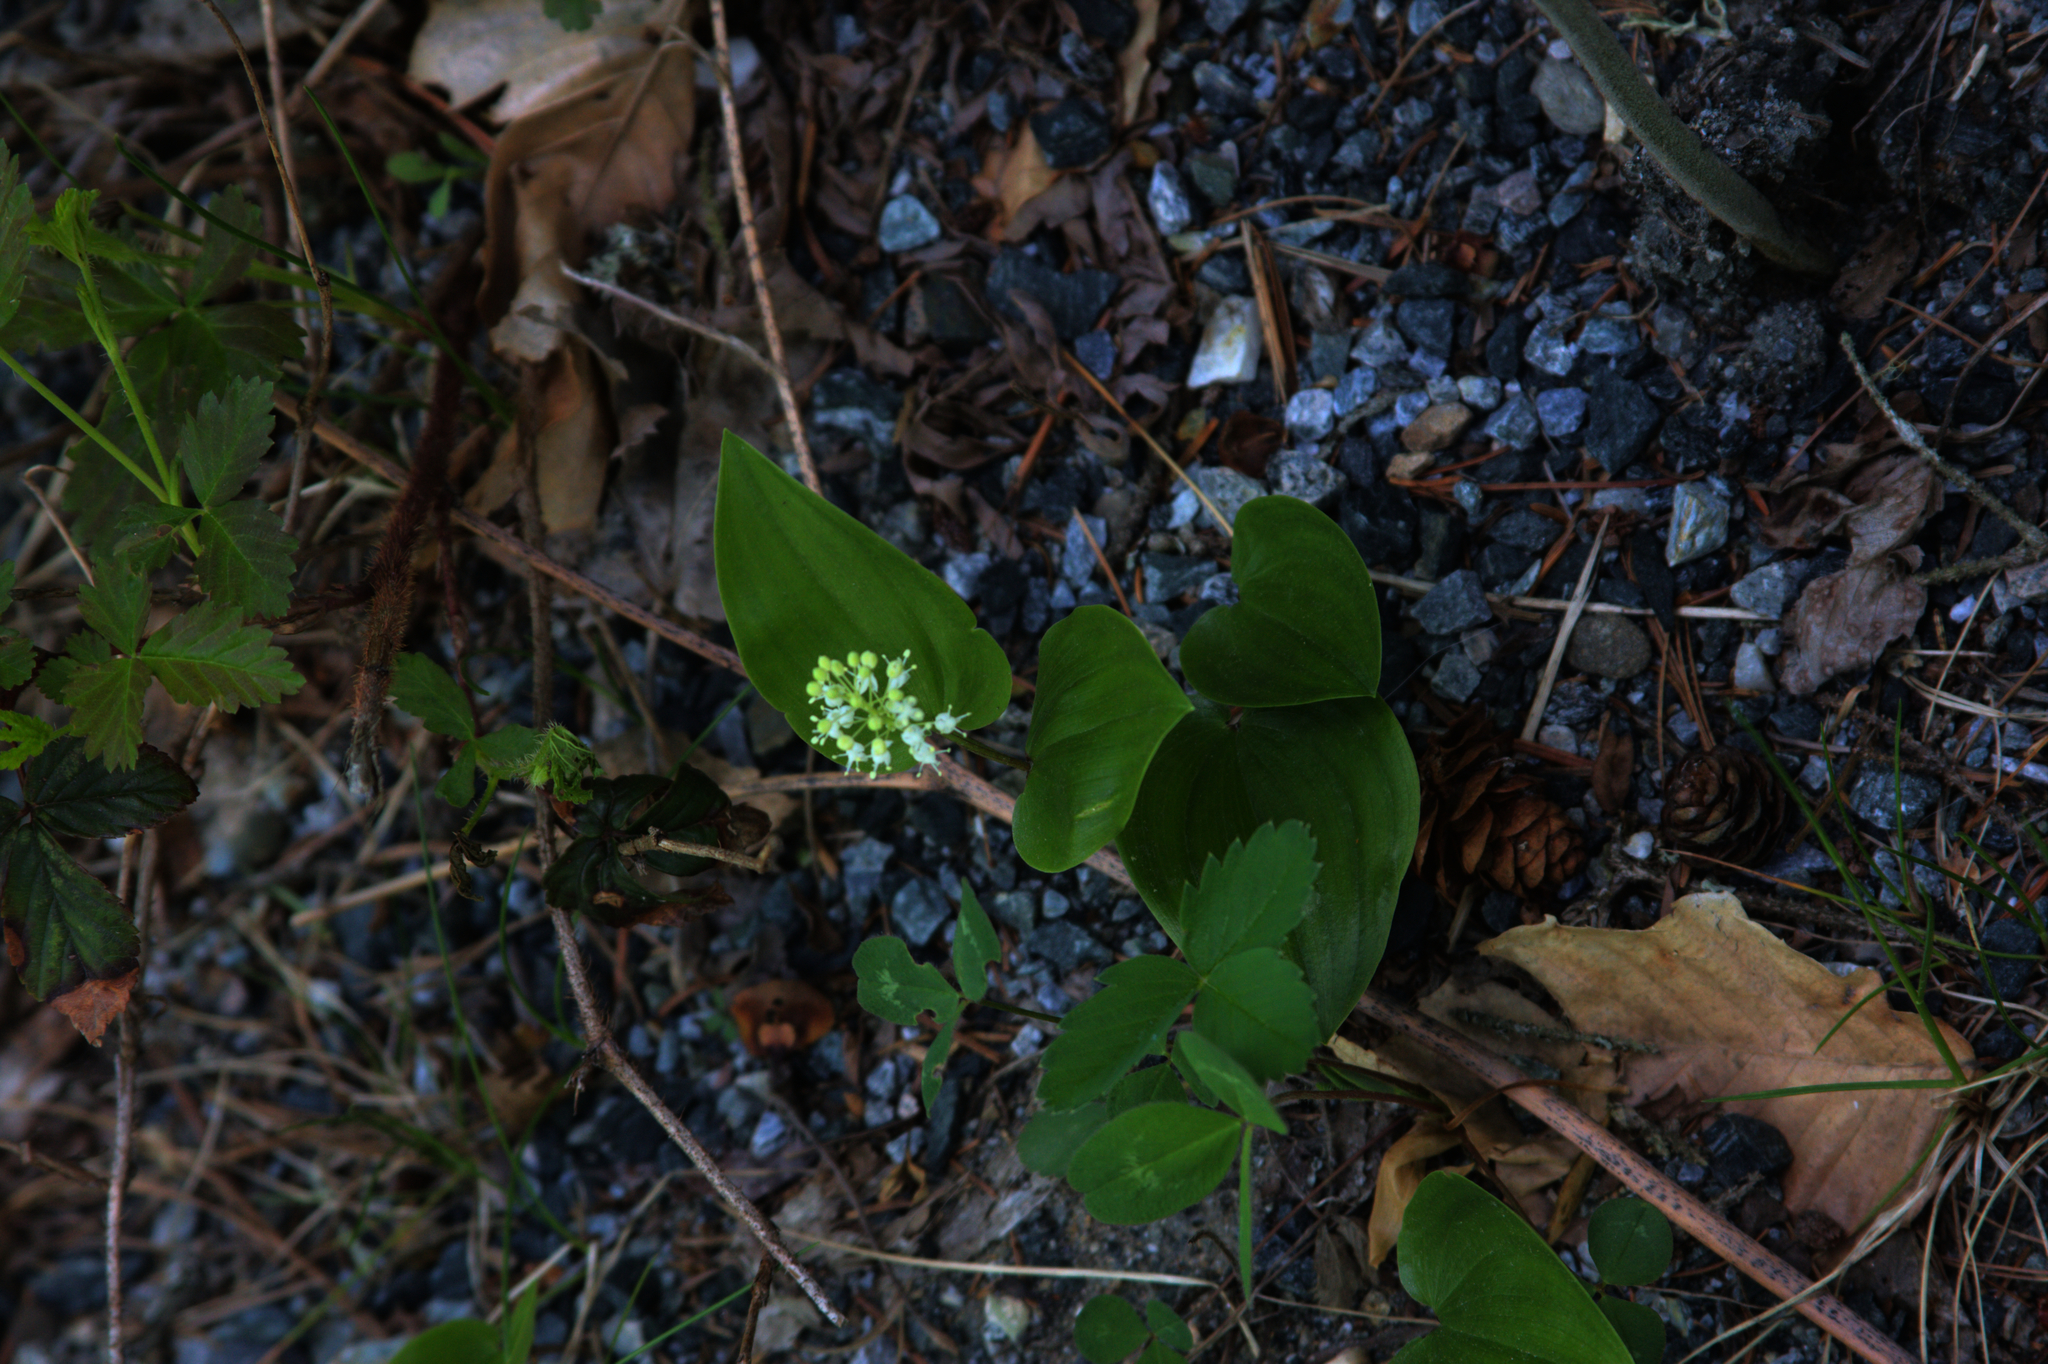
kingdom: Plantae
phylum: Tracheophyta
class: Liliopsida
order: Asparagales
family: Asparagaceae
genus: Maianthemum
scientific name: Maianthemum canadense
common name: False lily-of-the-valley
